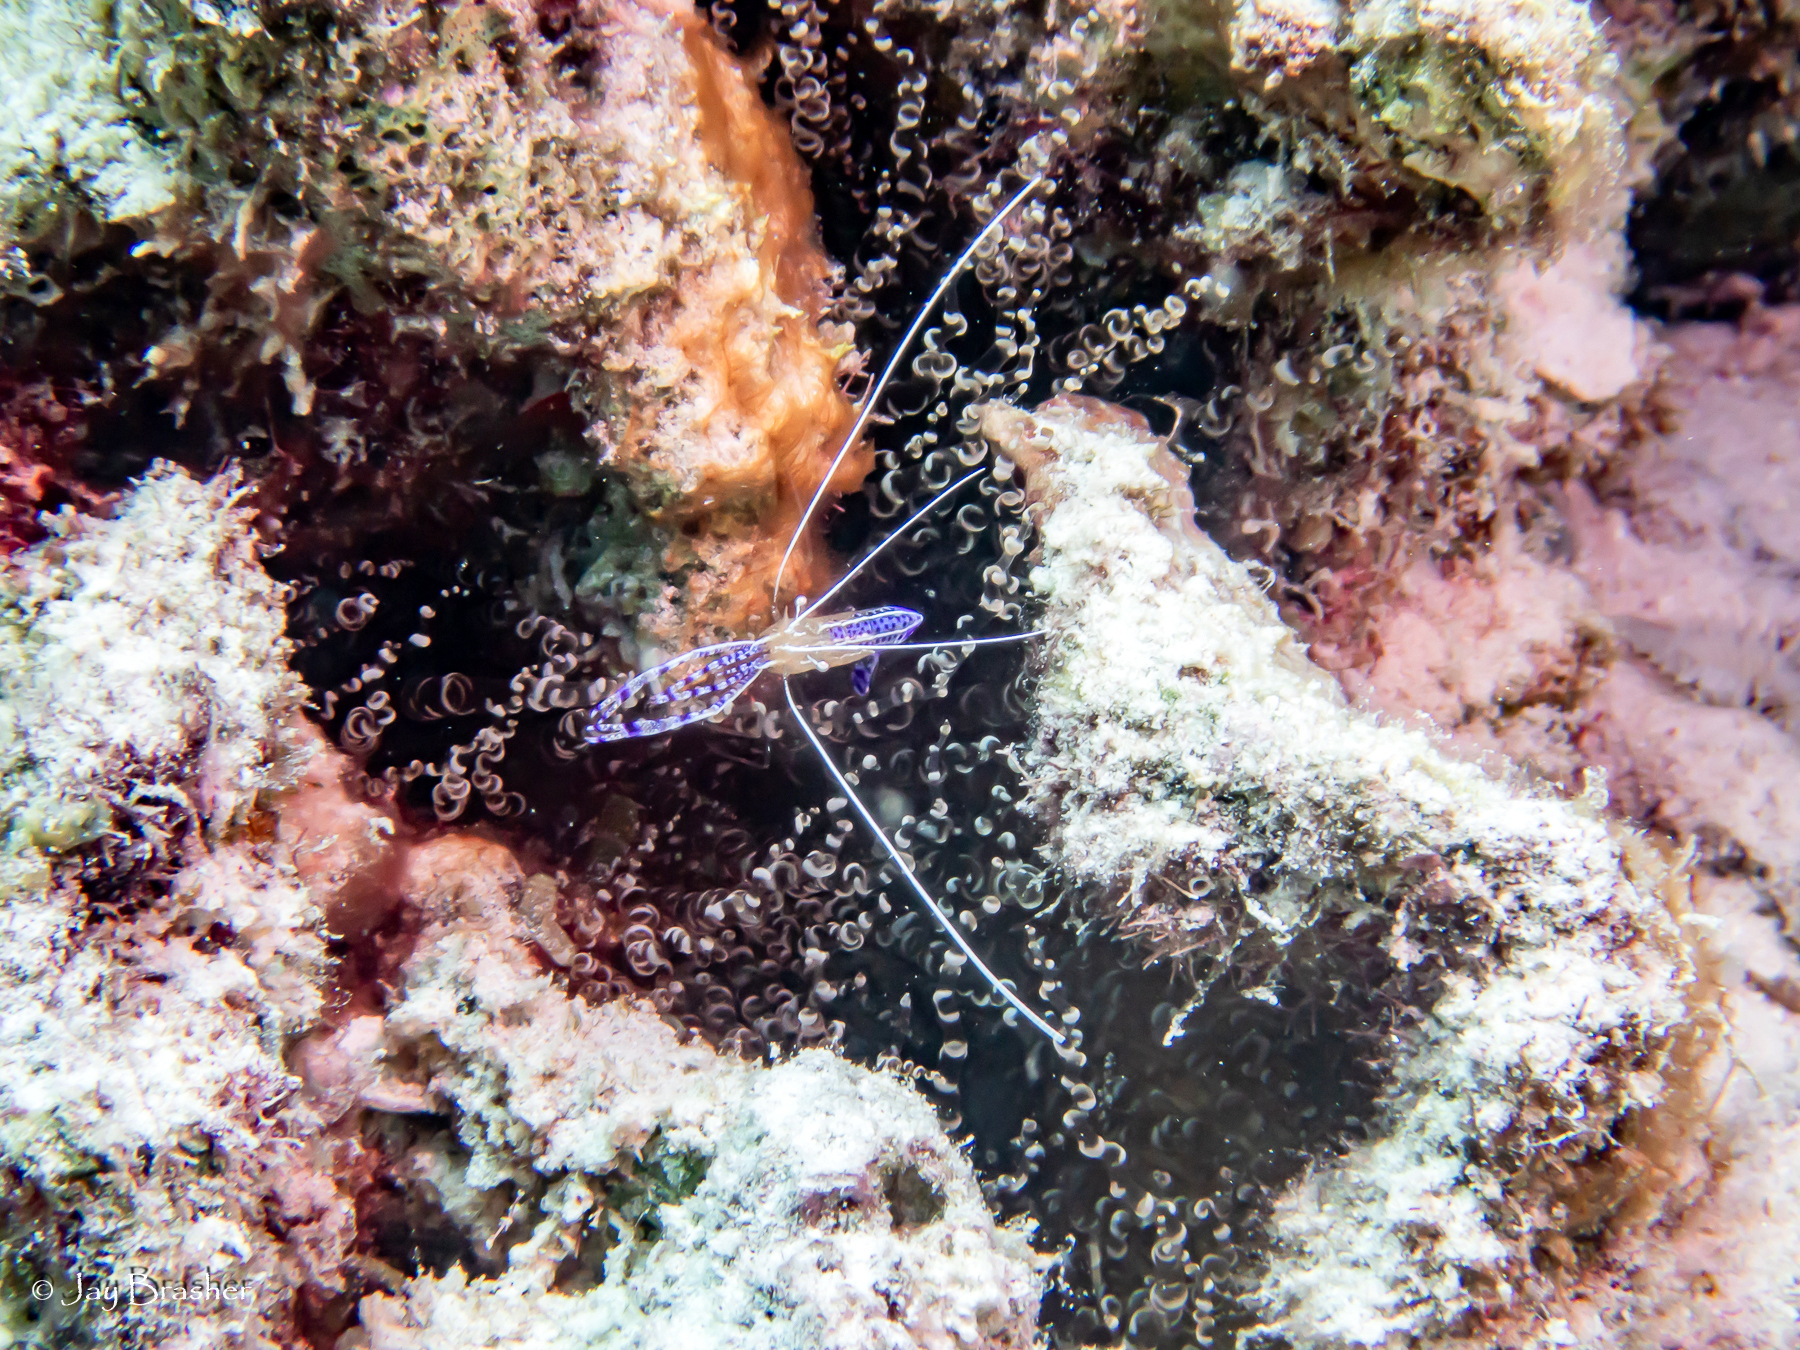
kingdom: Animalia
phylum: Cnidaria
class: Anthozoa
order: Actiniaria
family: Aiptasiidae
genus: Bartholomea
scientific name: Bartholomea annulata
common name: Corkscrew anemone
